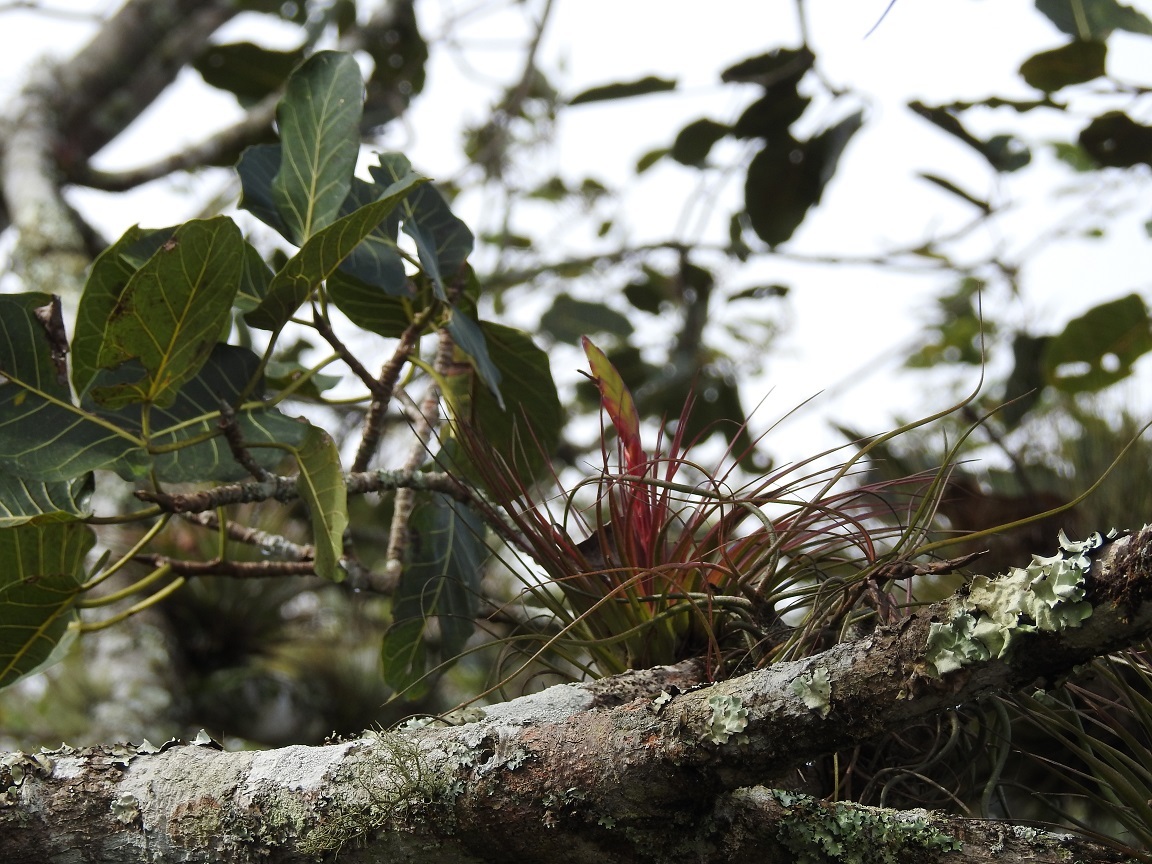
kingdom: Plantae
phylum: Tracheophyta
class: Liliopsida
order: Poales
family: Bromeliaceae
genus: Tillandsia
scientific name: Tillandsia fasciculata
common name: Giant airplant
